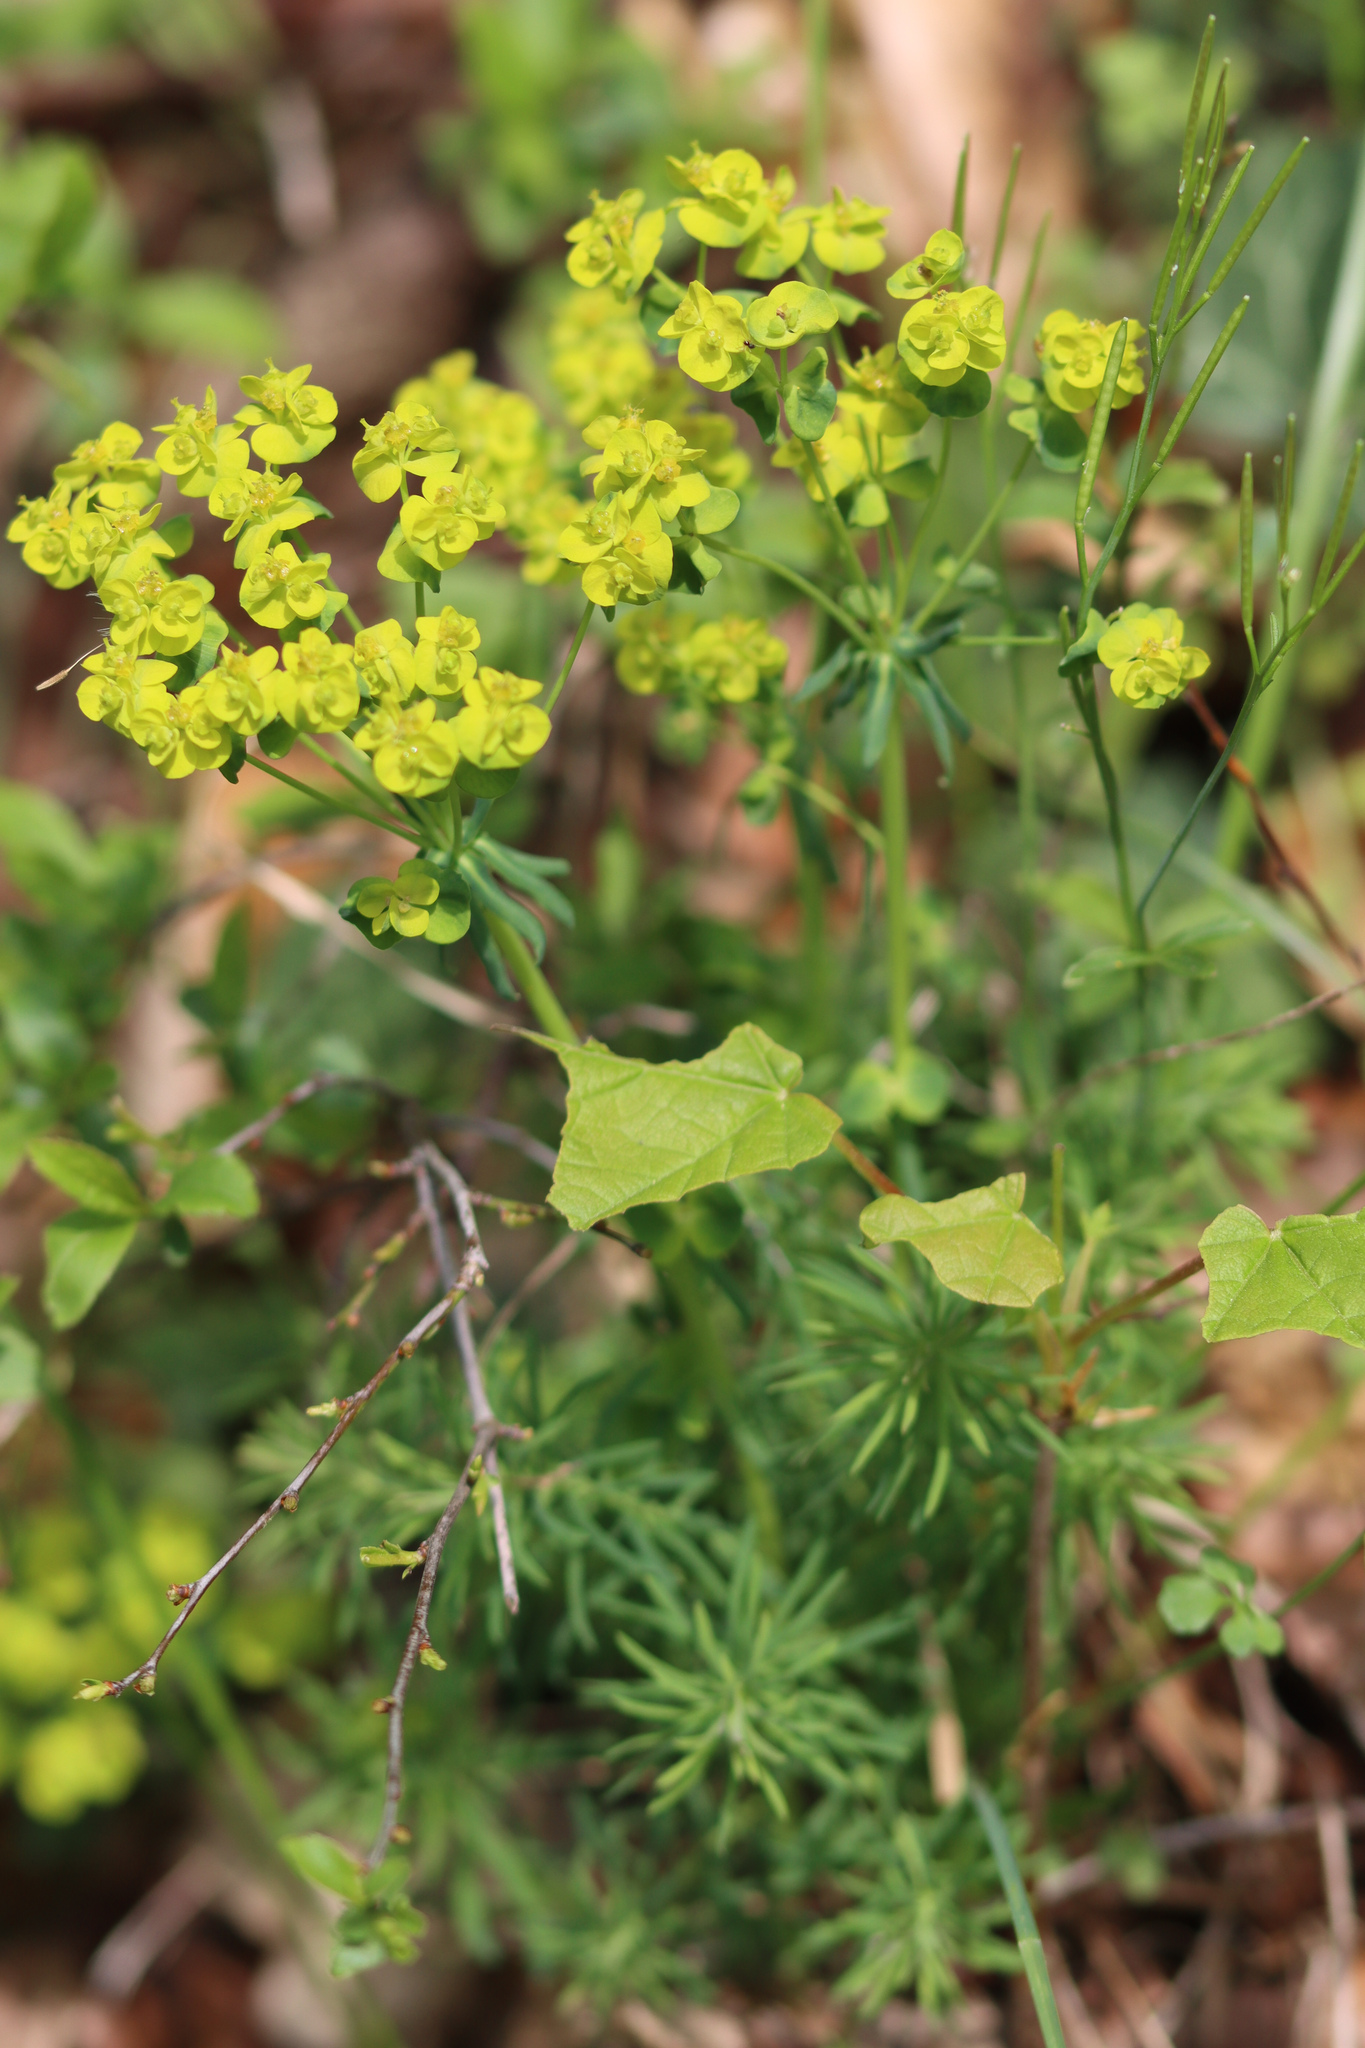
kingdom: Plantae
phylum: Tracheophyta
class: Magnoliopsida
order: Malpighiales
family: Euphorbiaceae
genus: Euphorbia
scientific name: Euphorbia cyparissias
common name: Cypress spurge
